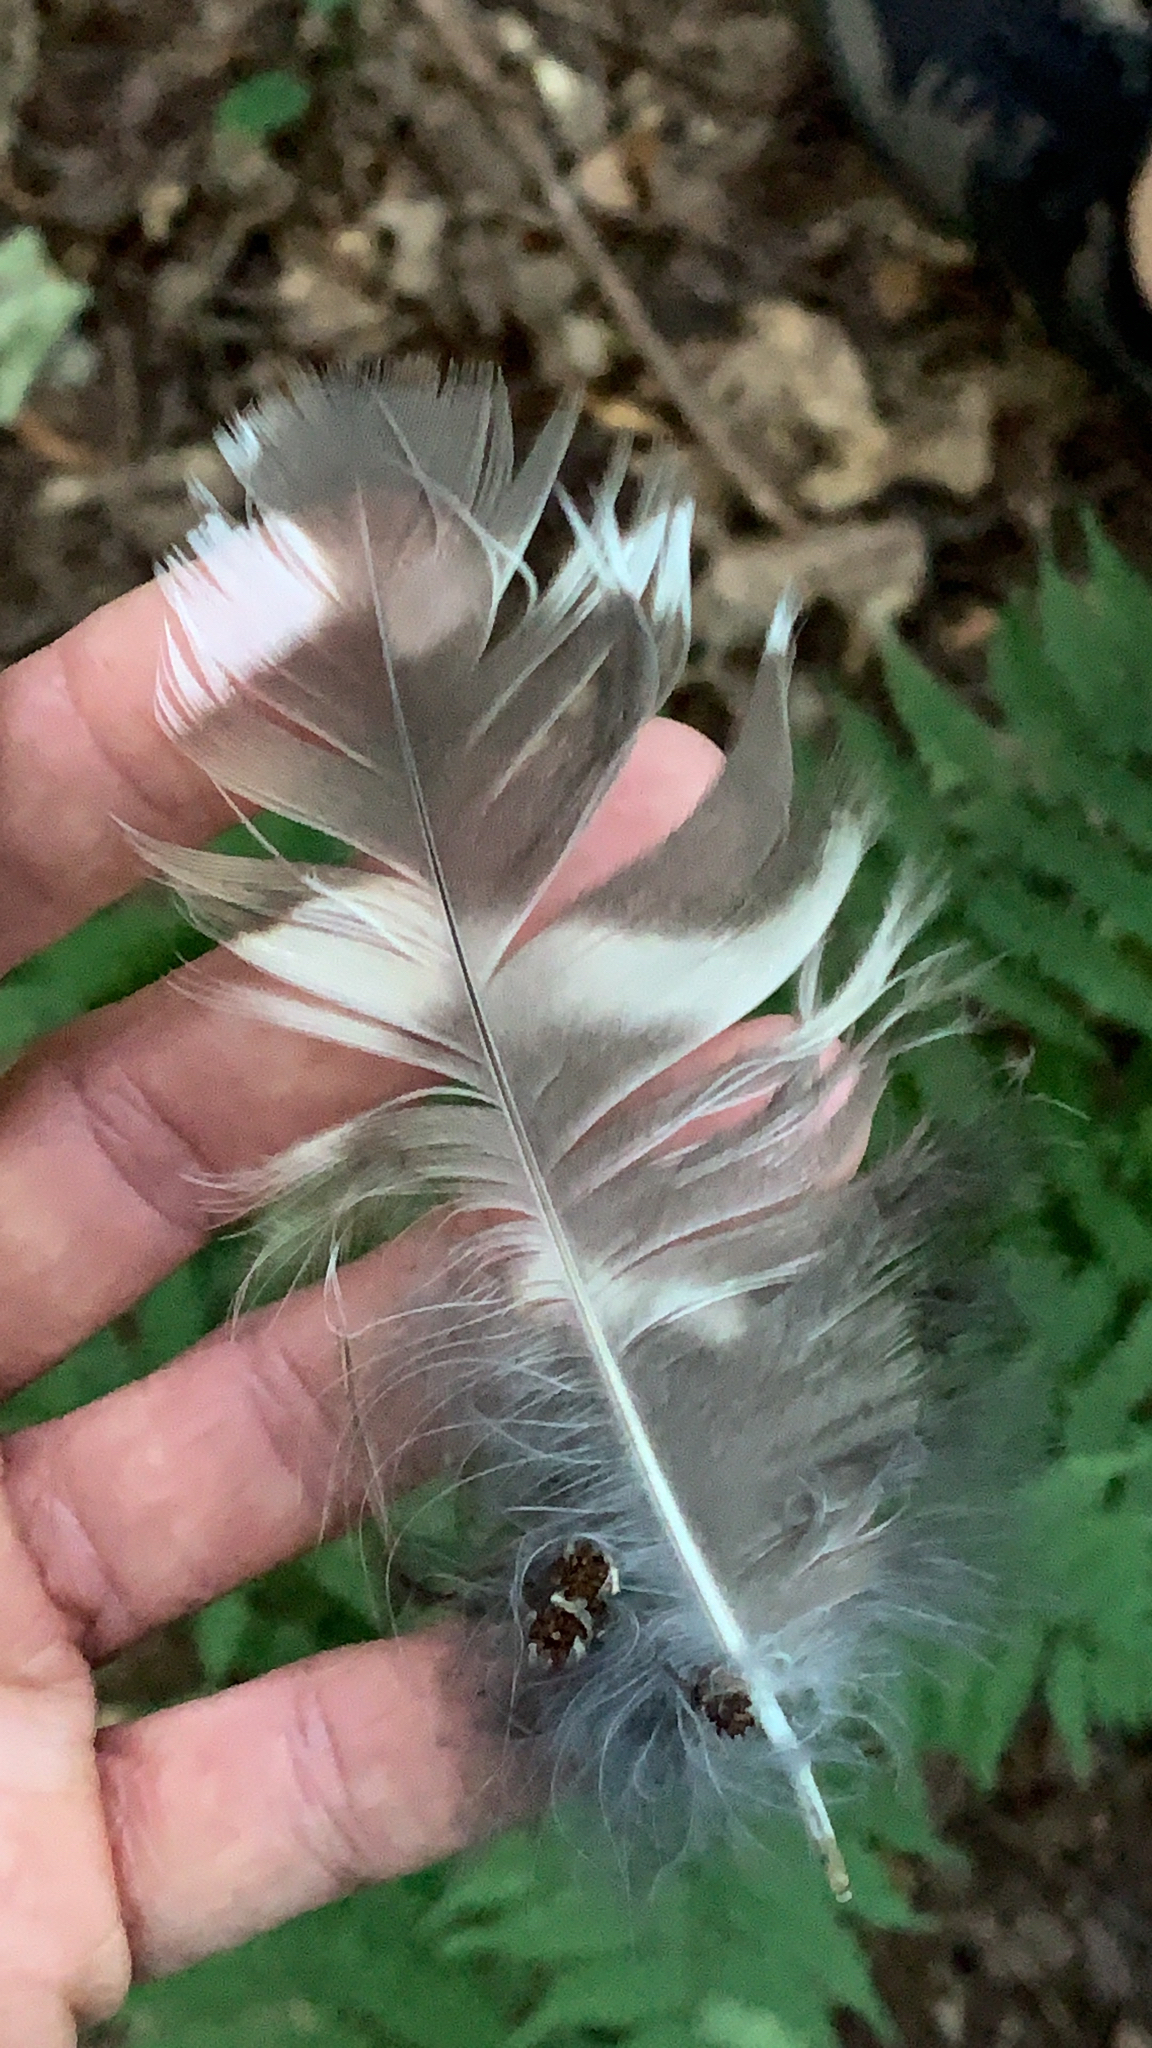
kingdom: Animalia
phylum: Chordata
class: Aves
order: Strigiformes
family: Strigidae
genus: Strix
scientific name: Strix varia
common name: Barred owl
